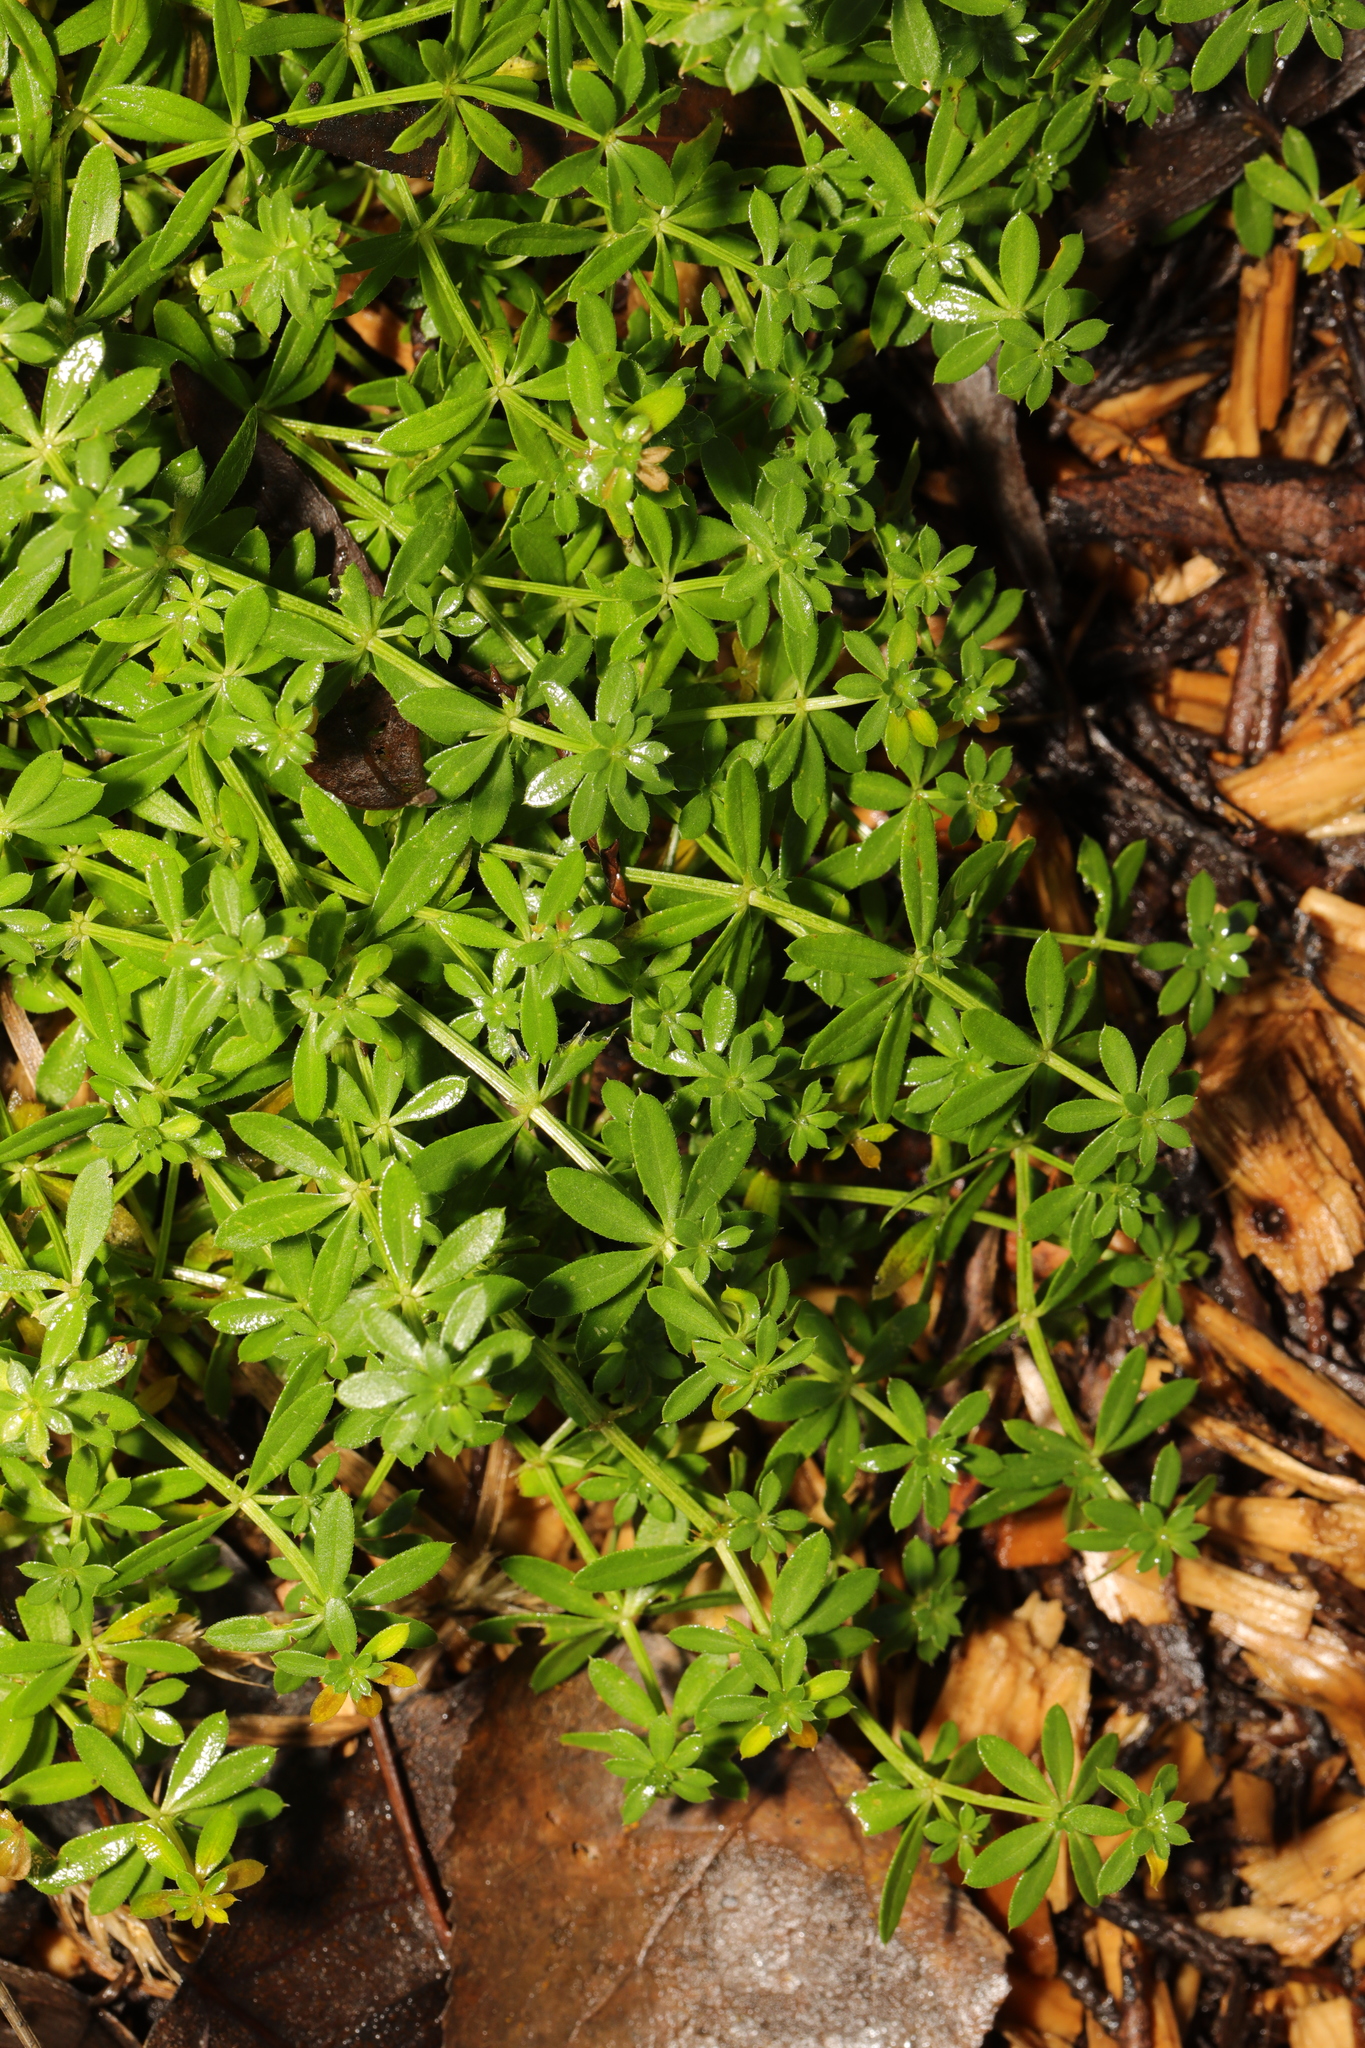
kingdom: Plantae
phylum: Tracheophyta
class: Magnoliopsida
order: Gentianales
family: Rubiaceae
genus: Galium
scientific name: Galium aparine
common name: Cleavers
